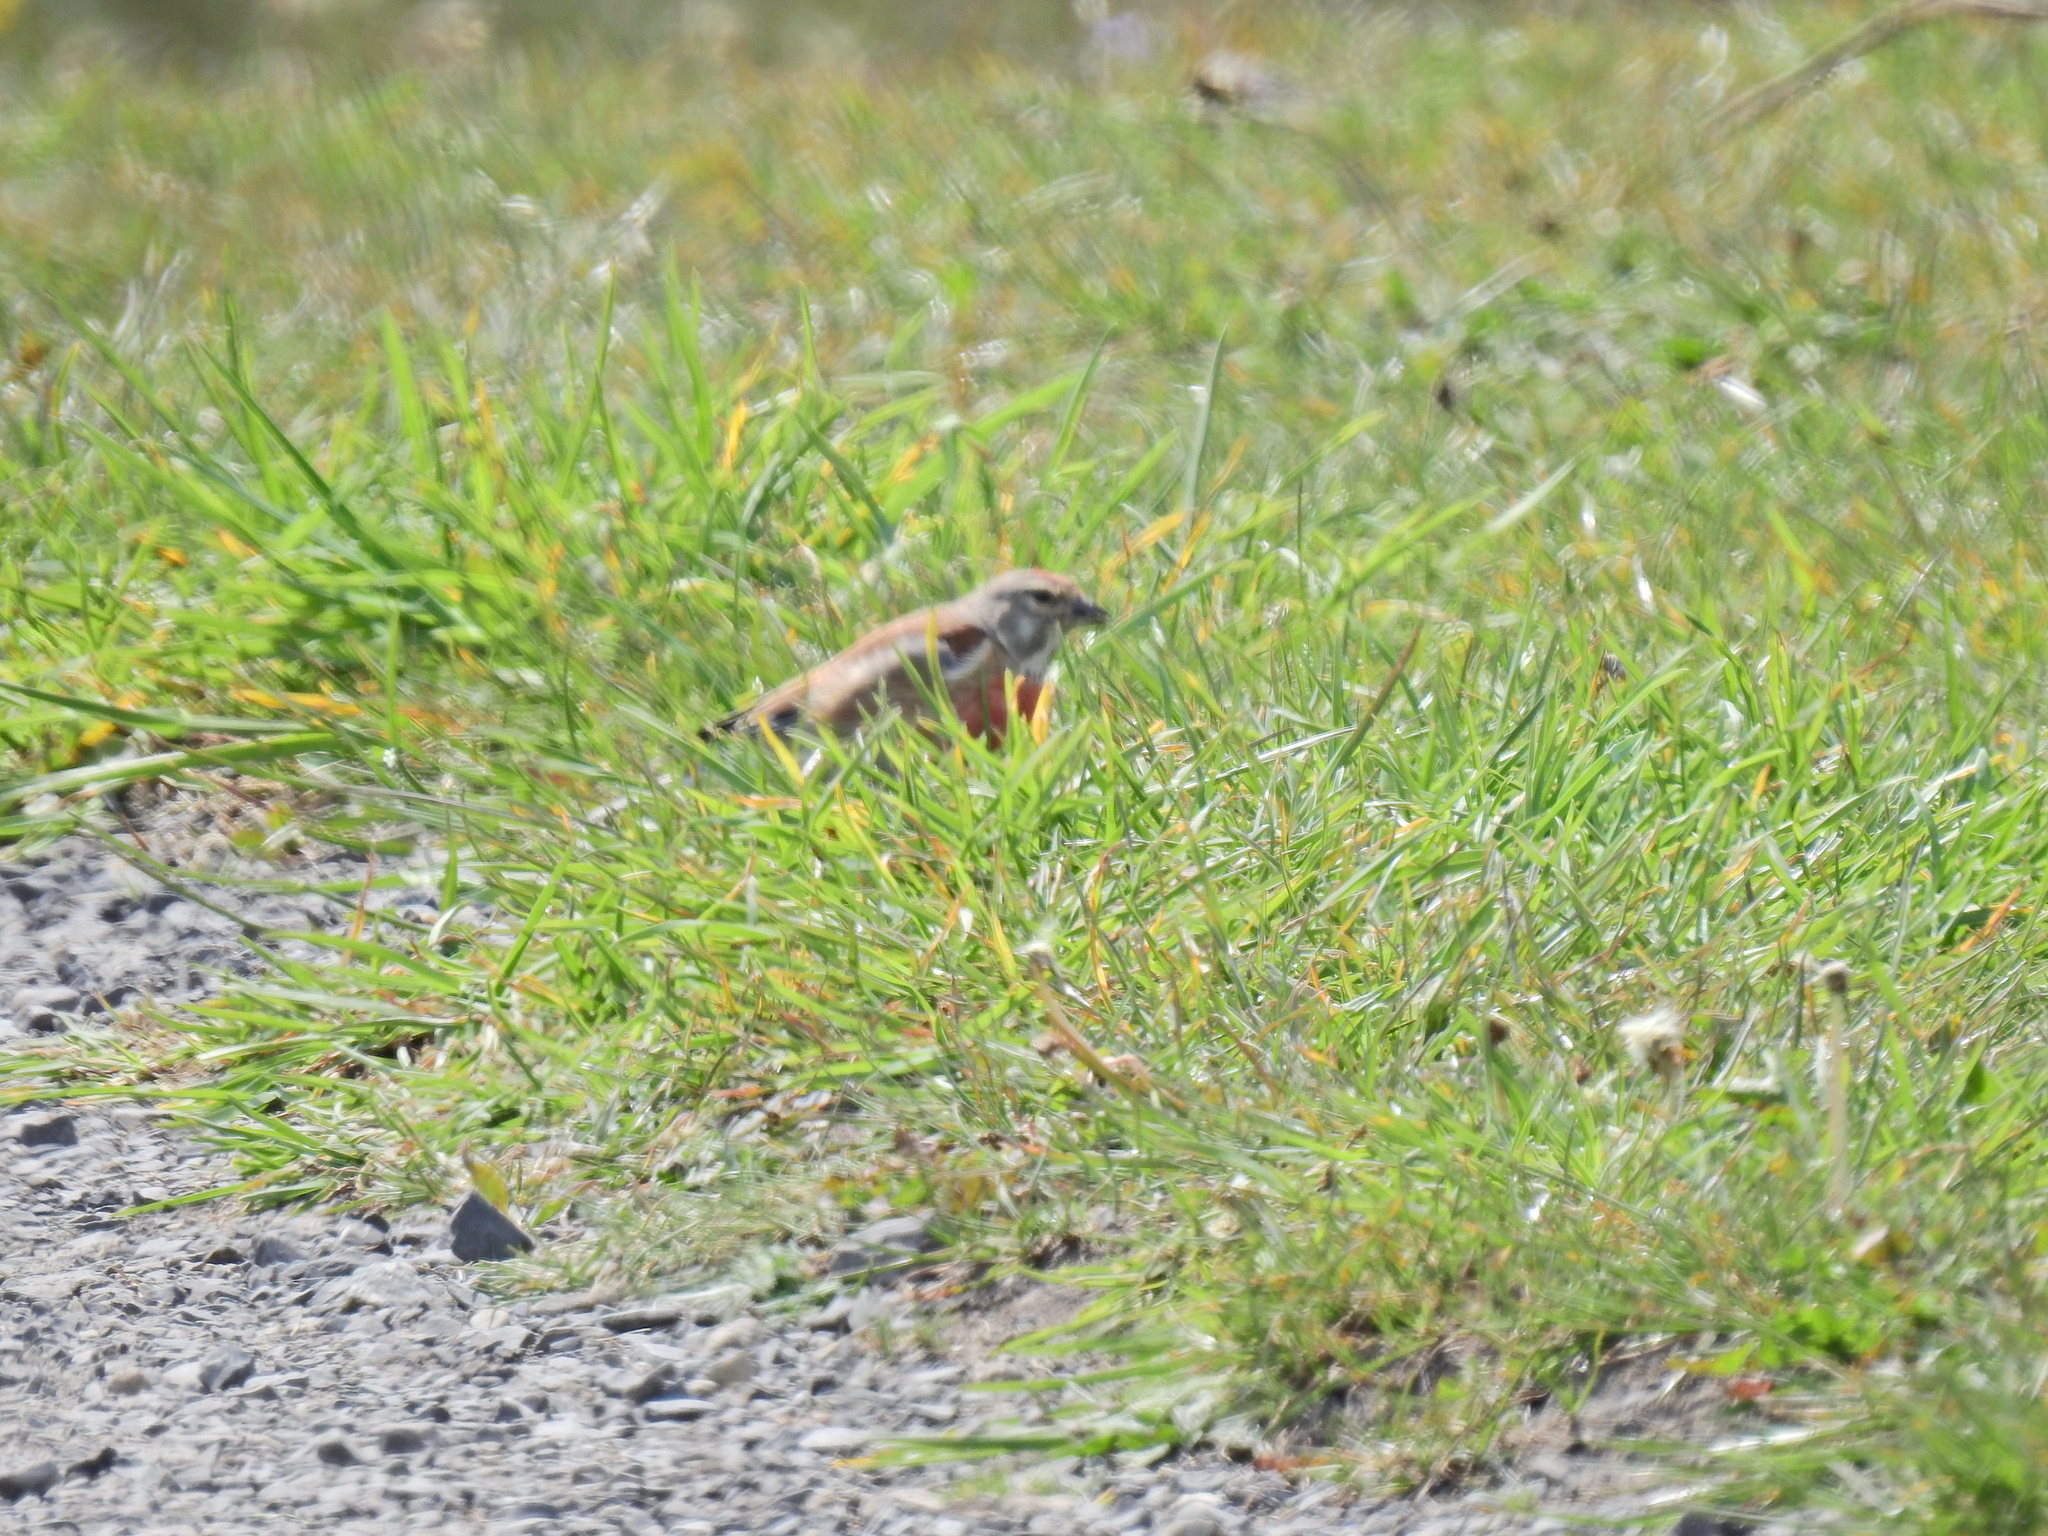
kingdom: Animalia
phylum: Chordata
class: Aves
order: Passeriformes
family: Fringillidae
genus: Linaria
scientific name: Linaria cannabina
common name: Common linnet
